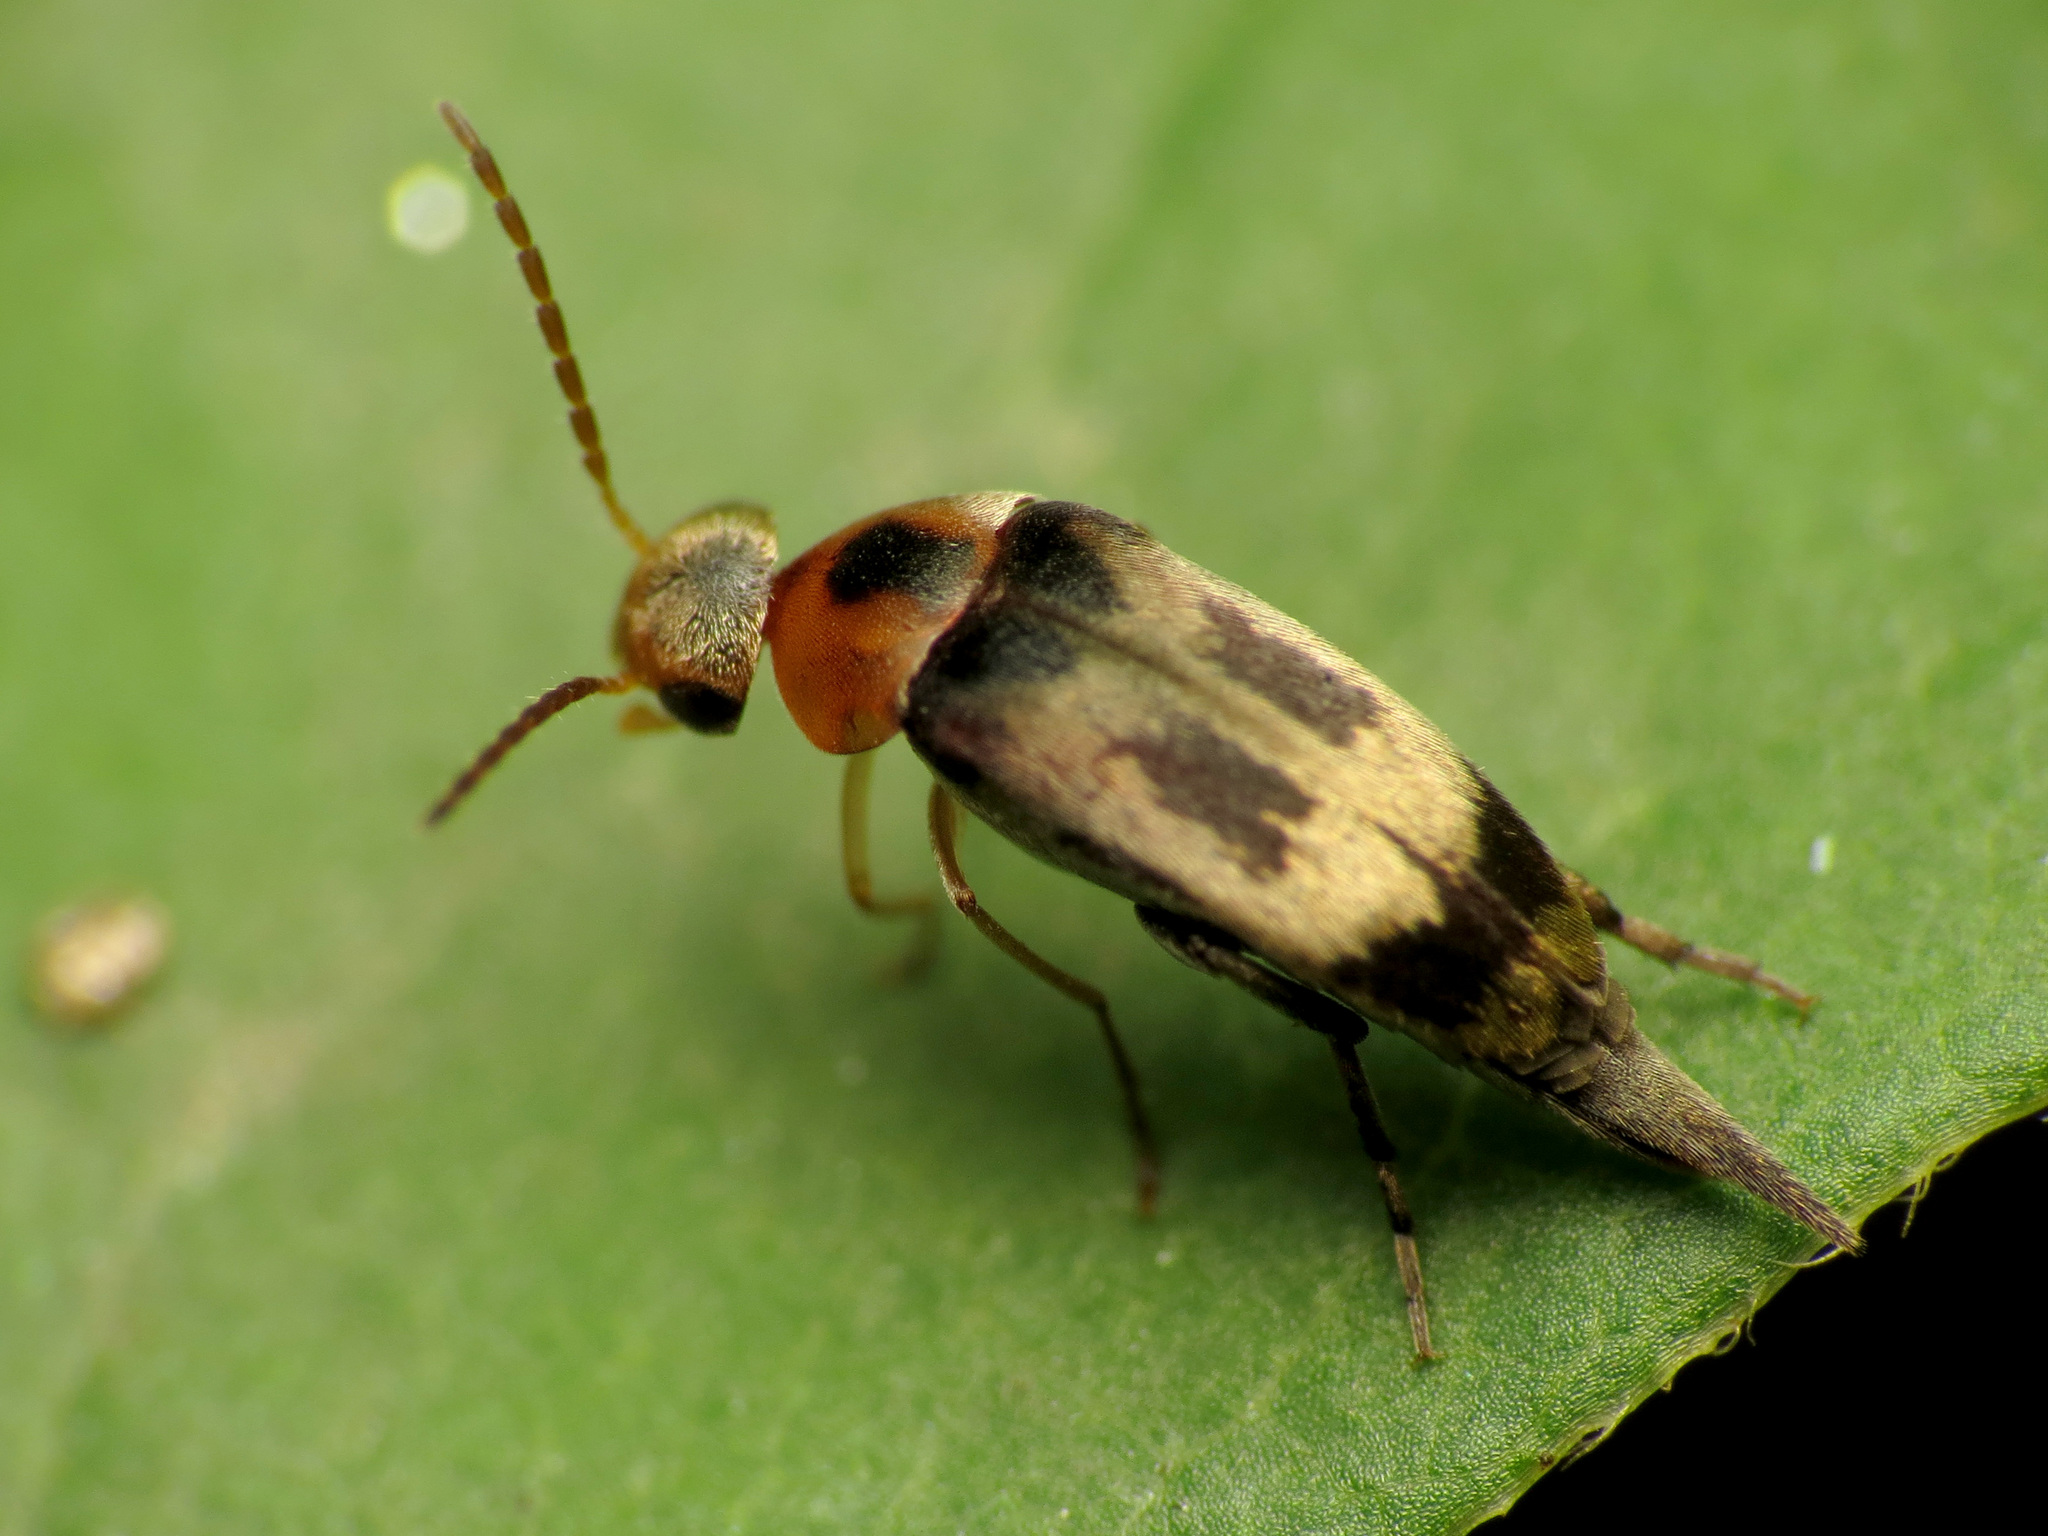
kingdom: Animalia
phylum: Arthropoda
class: Insecta
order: Coleoptera
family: Mordellidae
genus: Falsomordellistena
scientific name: Falsomordellistena hebraica
